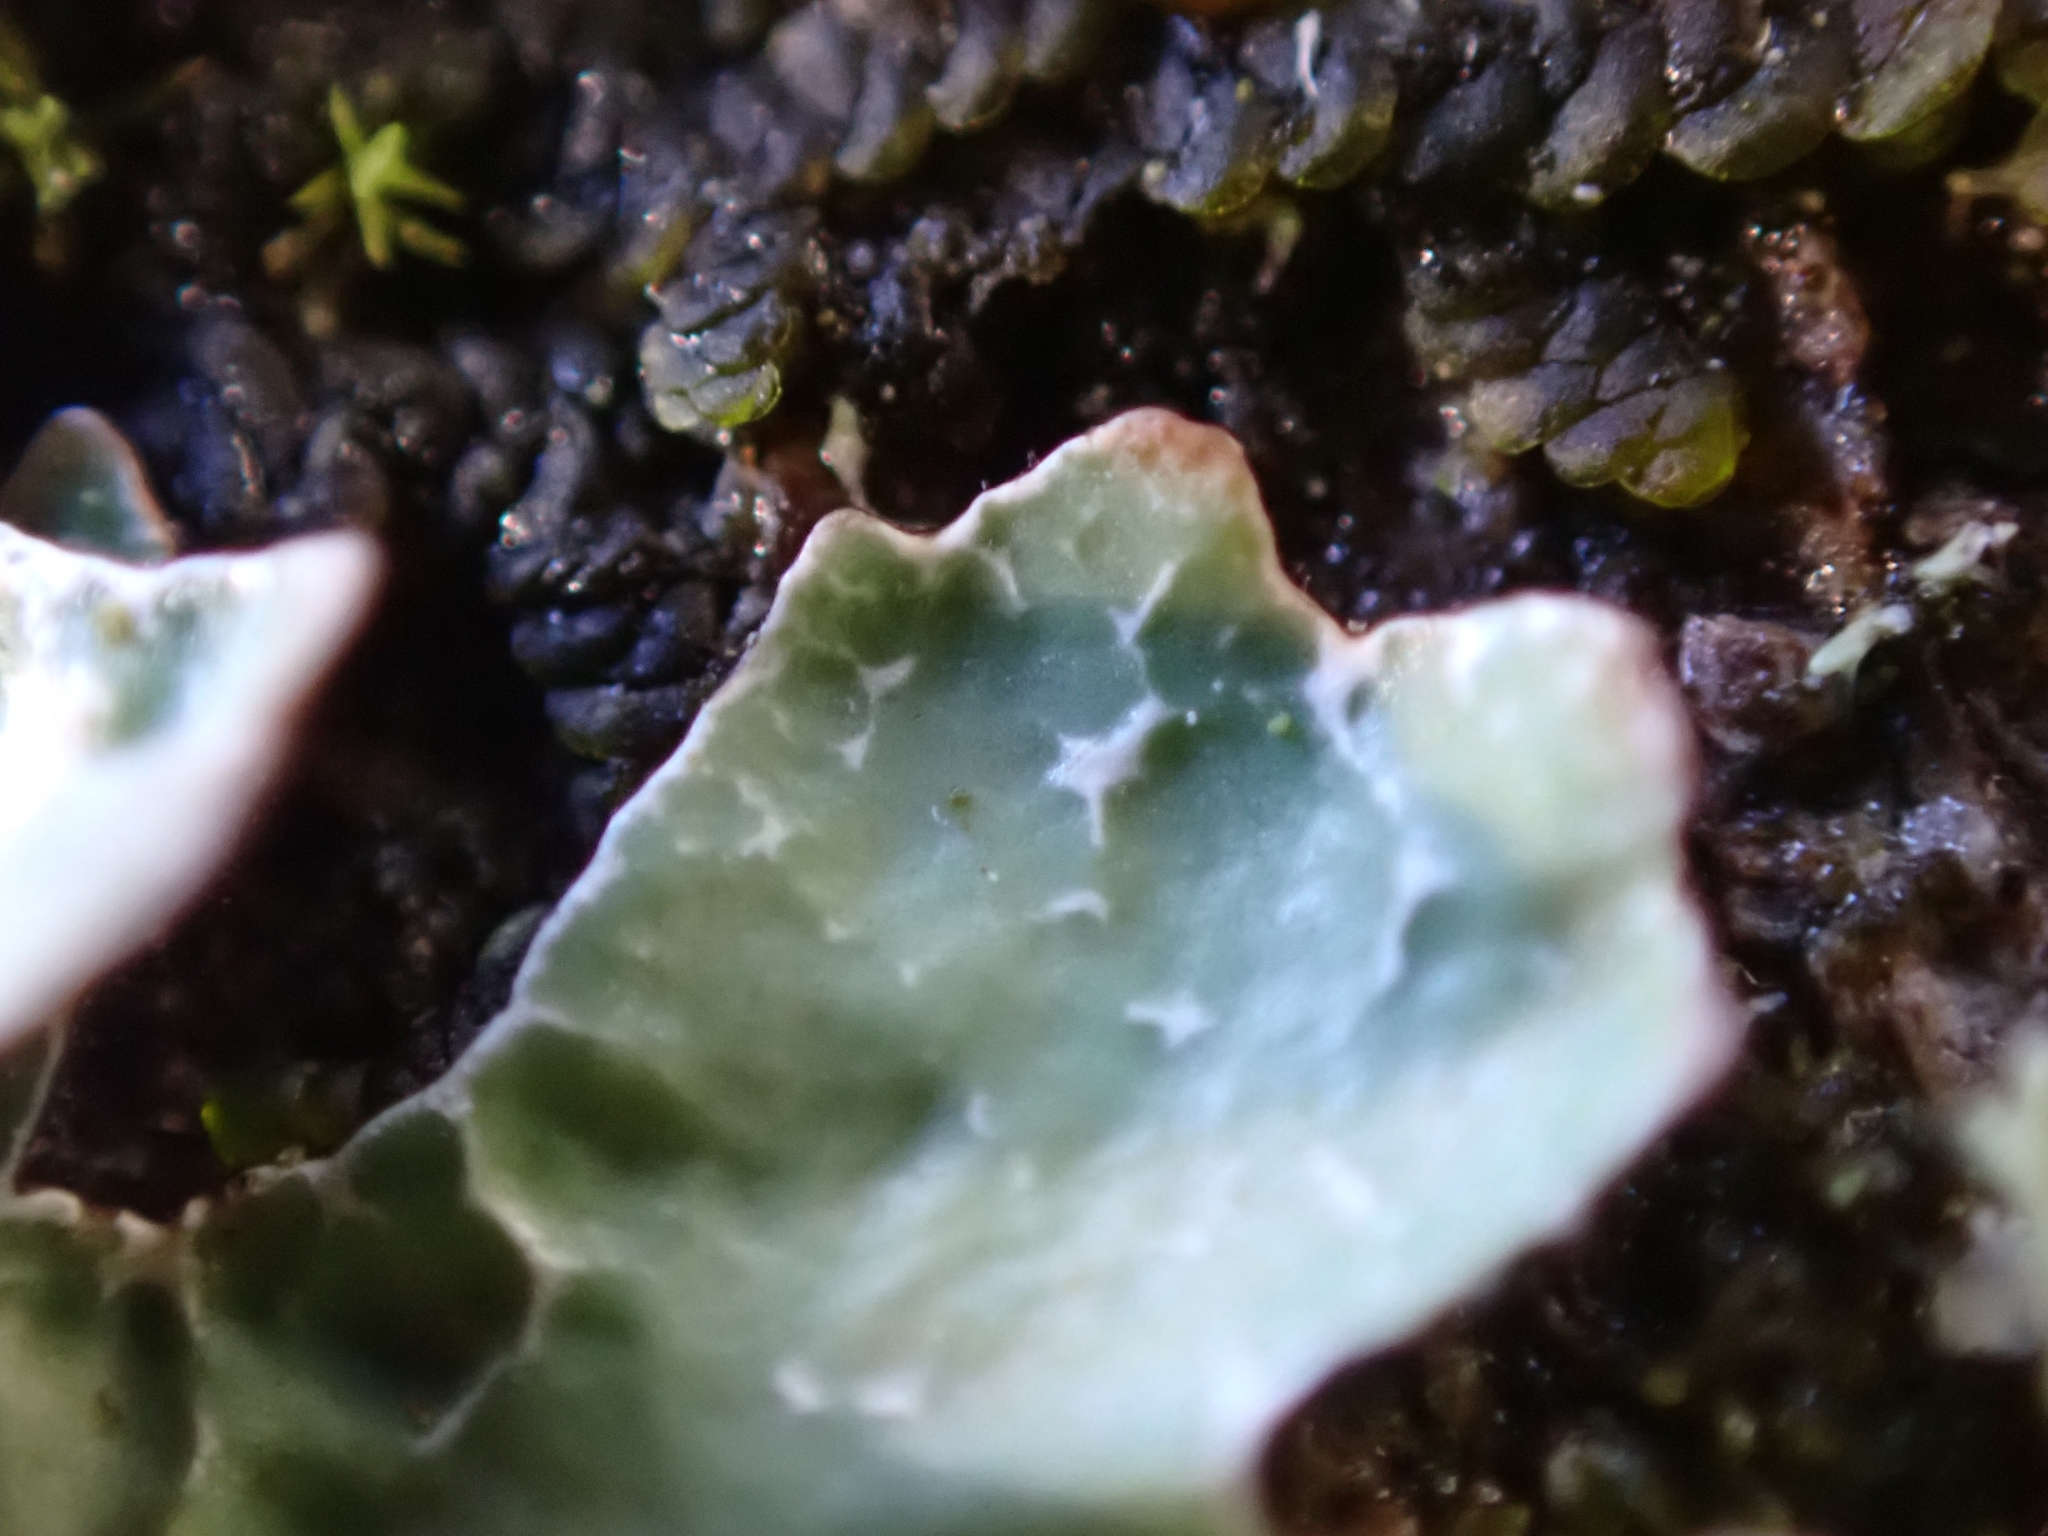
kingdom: Fungi
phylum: Ascomycota
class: Lecanoromycetes
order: Lecanorales
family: Parmeliaceae
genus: Parmelia
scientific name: Parmelia sulcata
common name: Netted shield lichen
